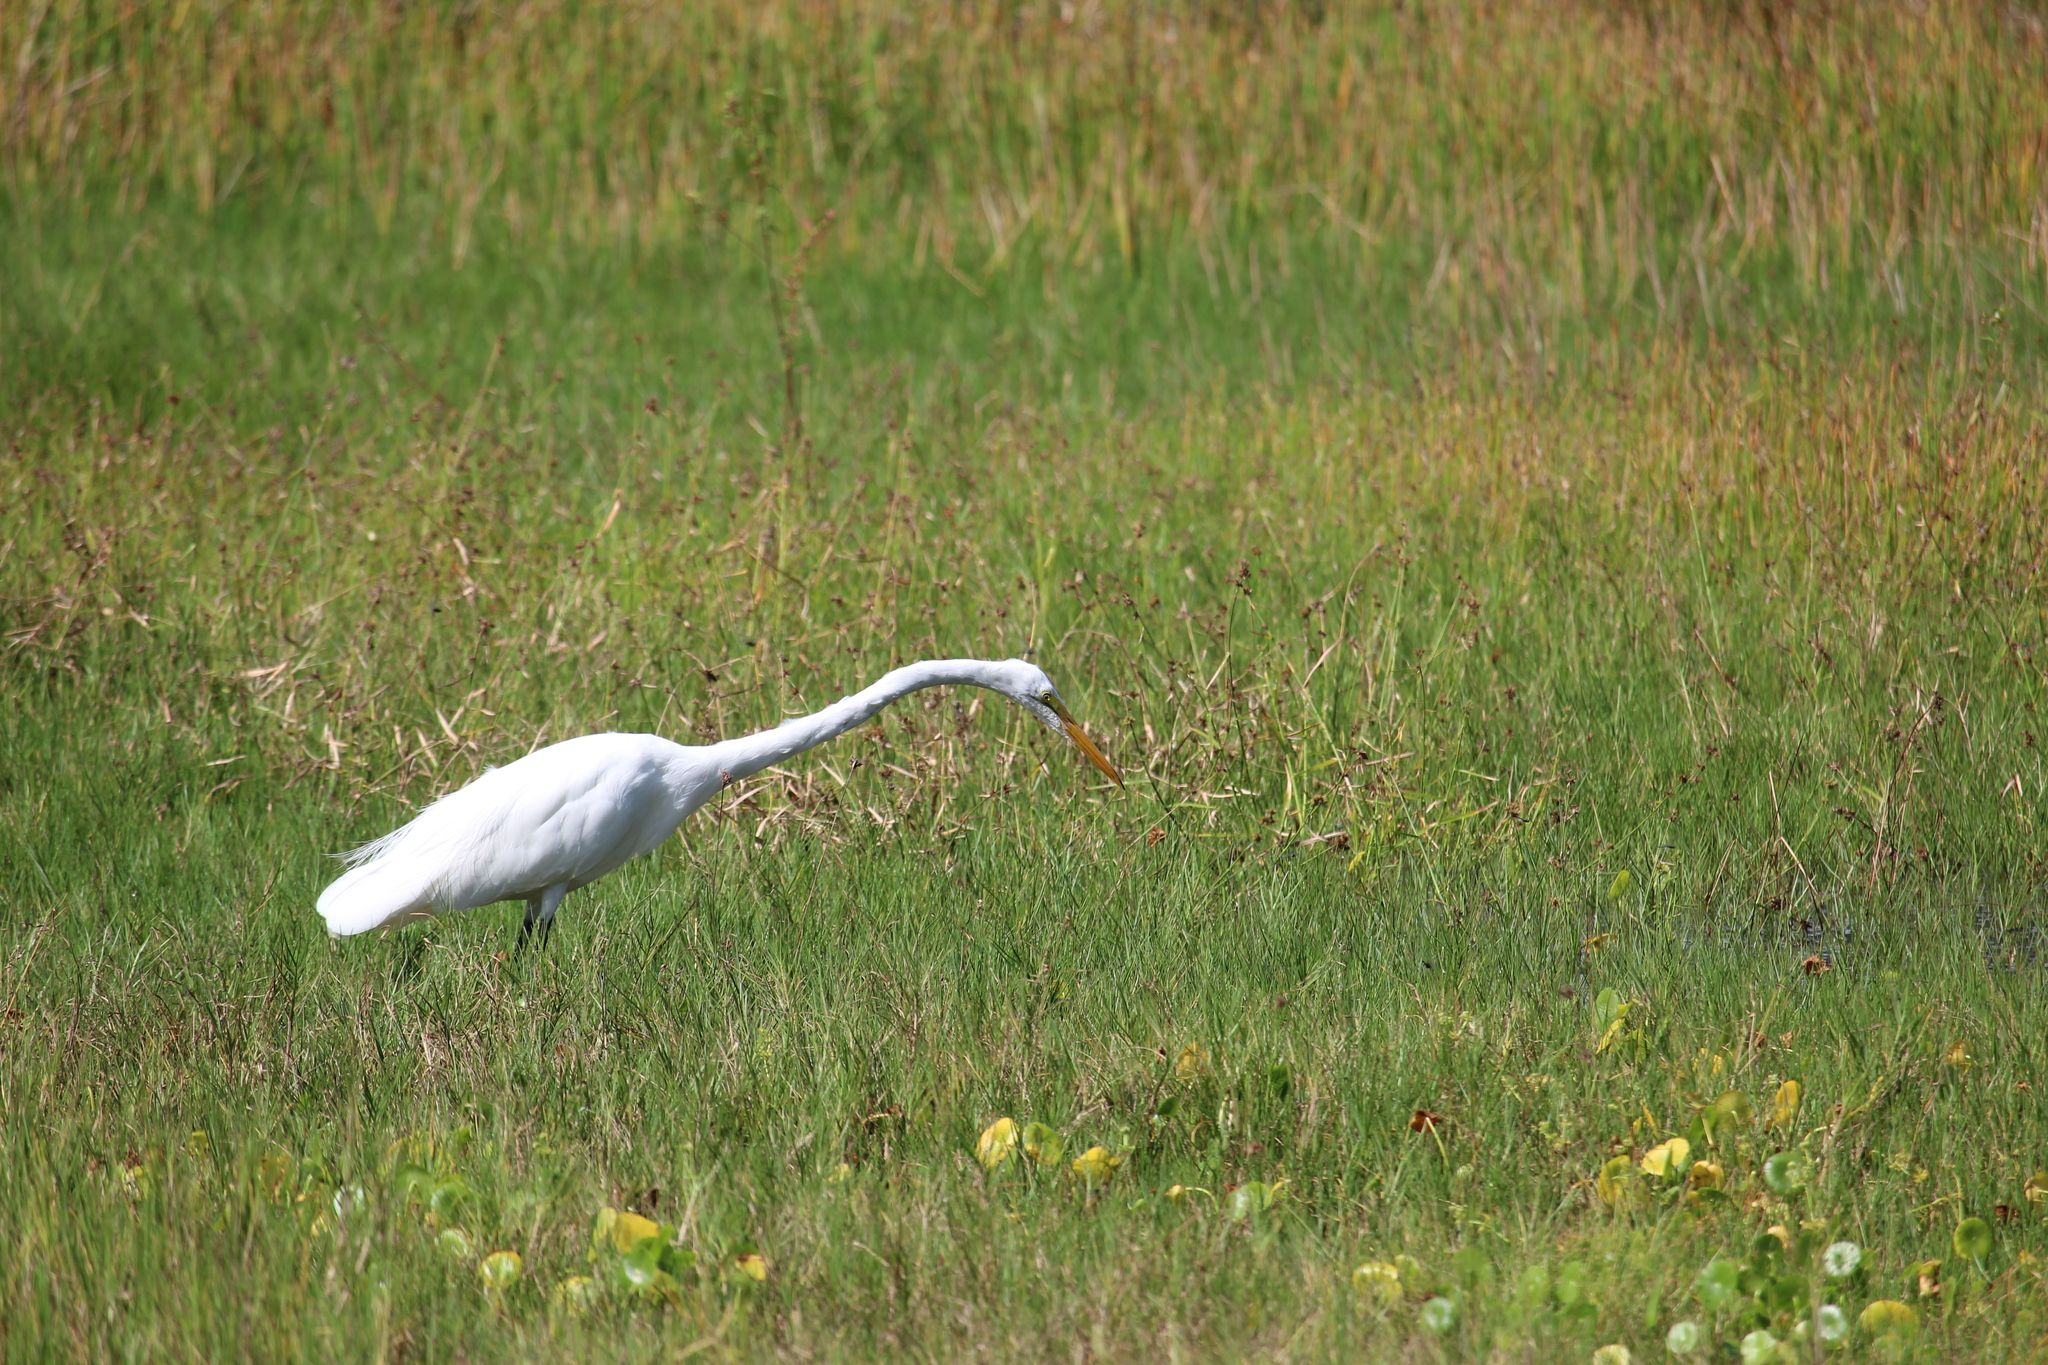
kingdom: Animalia
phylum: Chordata
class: Aves
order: Pelecaniformes
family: Ardeidae
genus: Ardea
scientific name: Ardea alba
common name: Great egret
